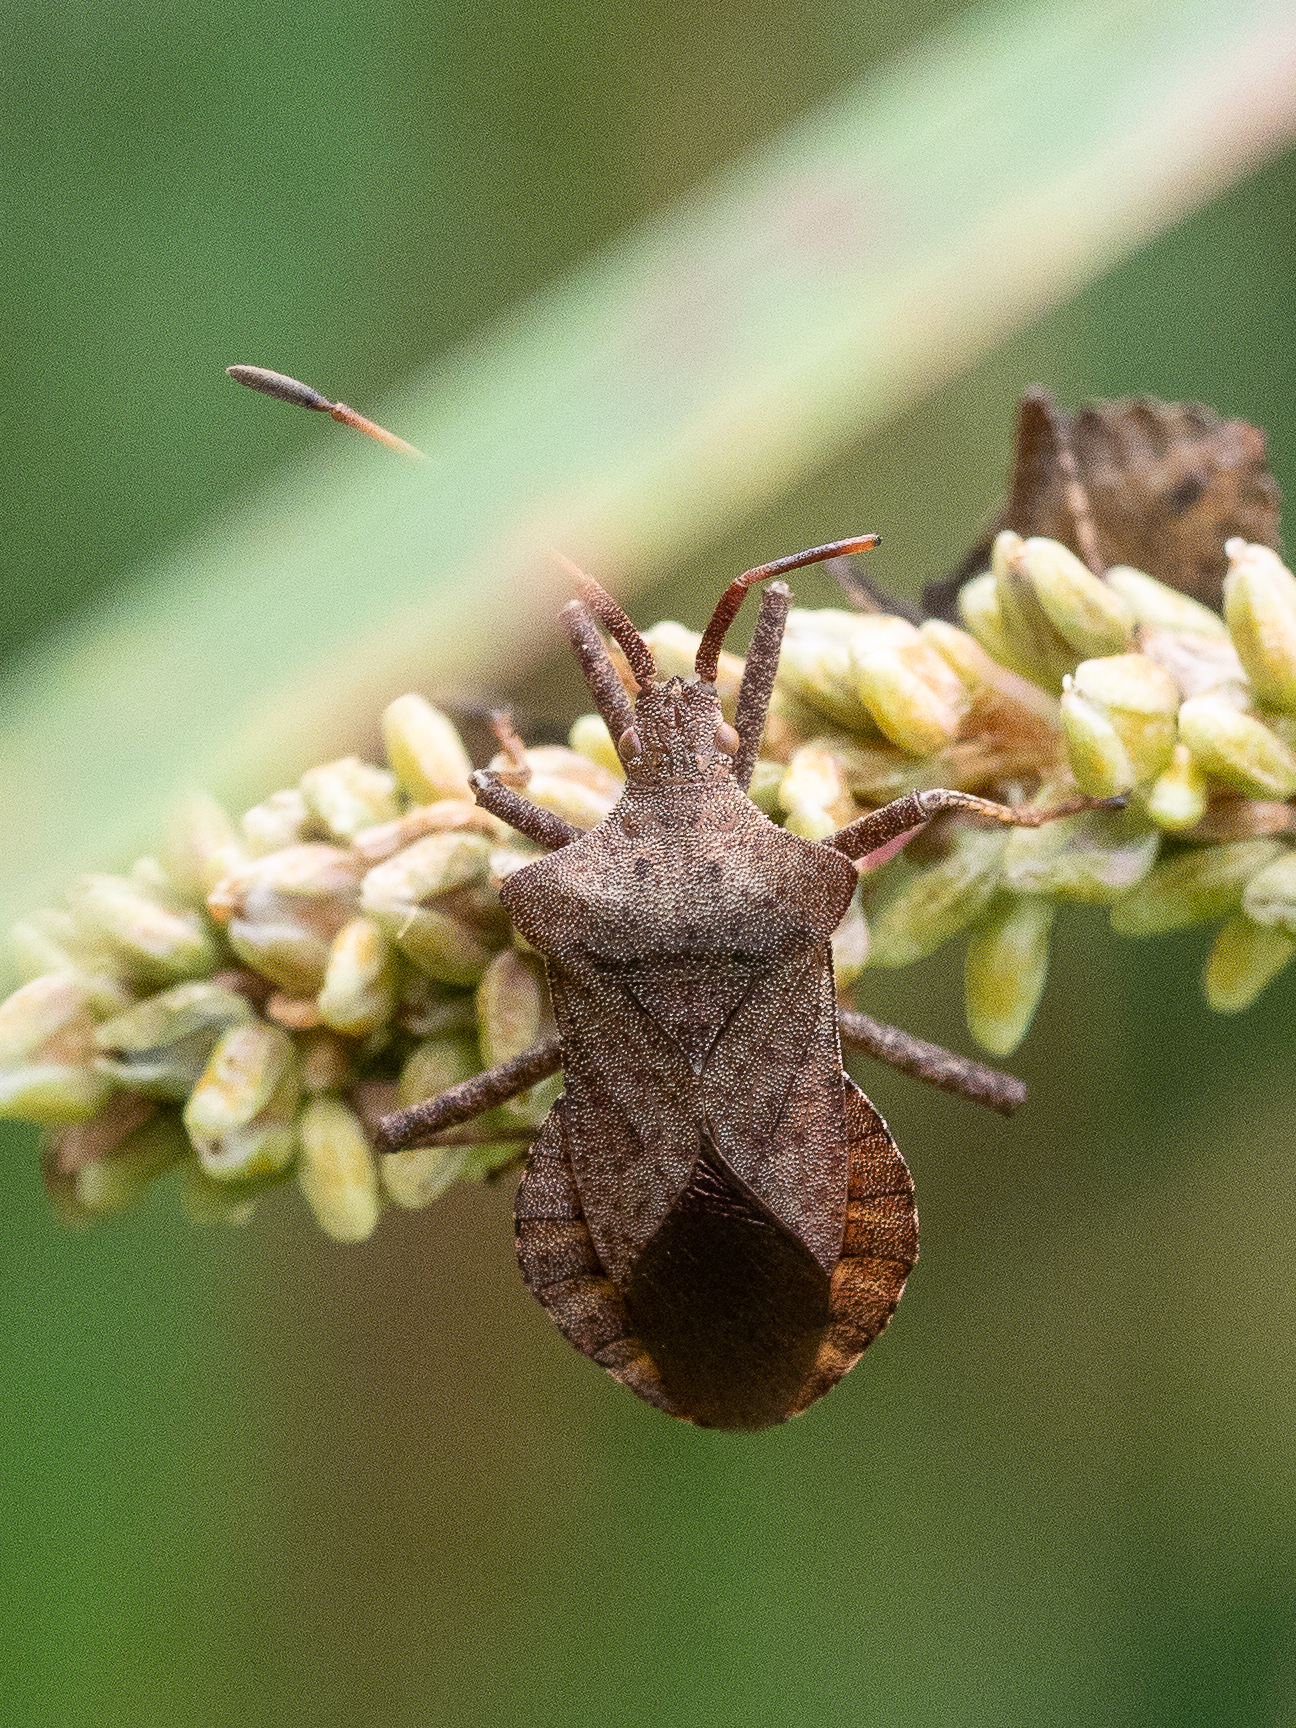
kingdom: Animalia
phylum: Arthropoda
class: Insecta
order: Hemiptera
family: Coreidae
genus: Coreus
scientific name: Coreus marginatus
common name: Dock bug
